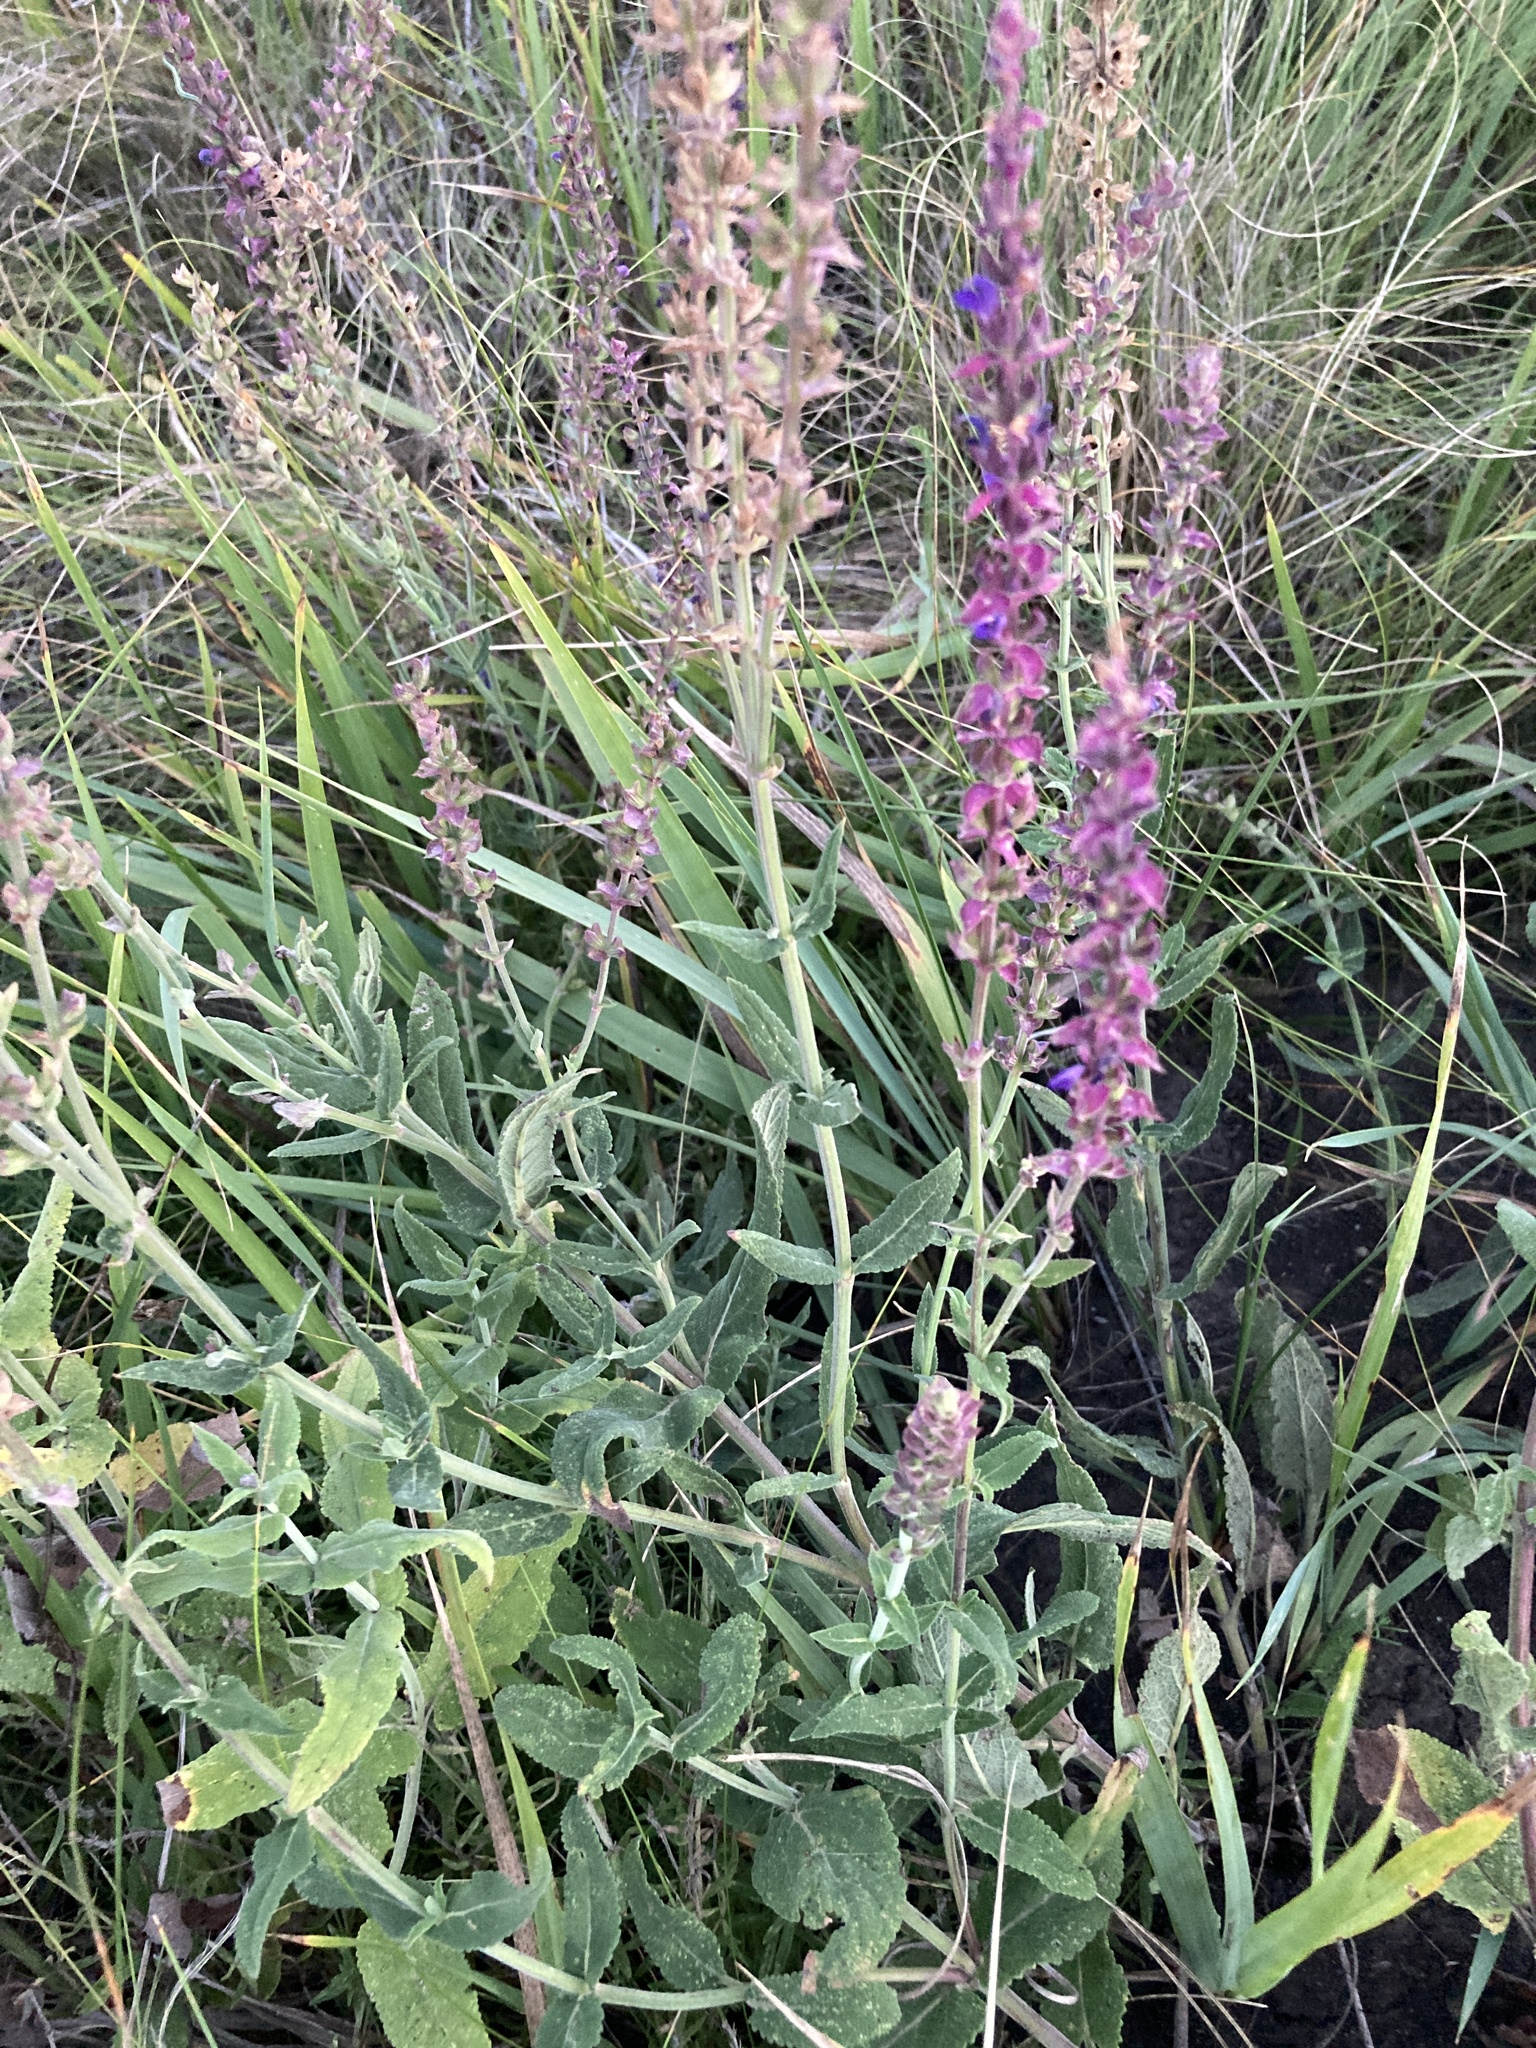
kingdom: Plantae
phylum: Tracheophyta
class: Magnoliopsida
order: Lamiales
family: Lamiaceae
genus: Salvia
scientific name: Salvia nemorosa
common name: Balkan clary
